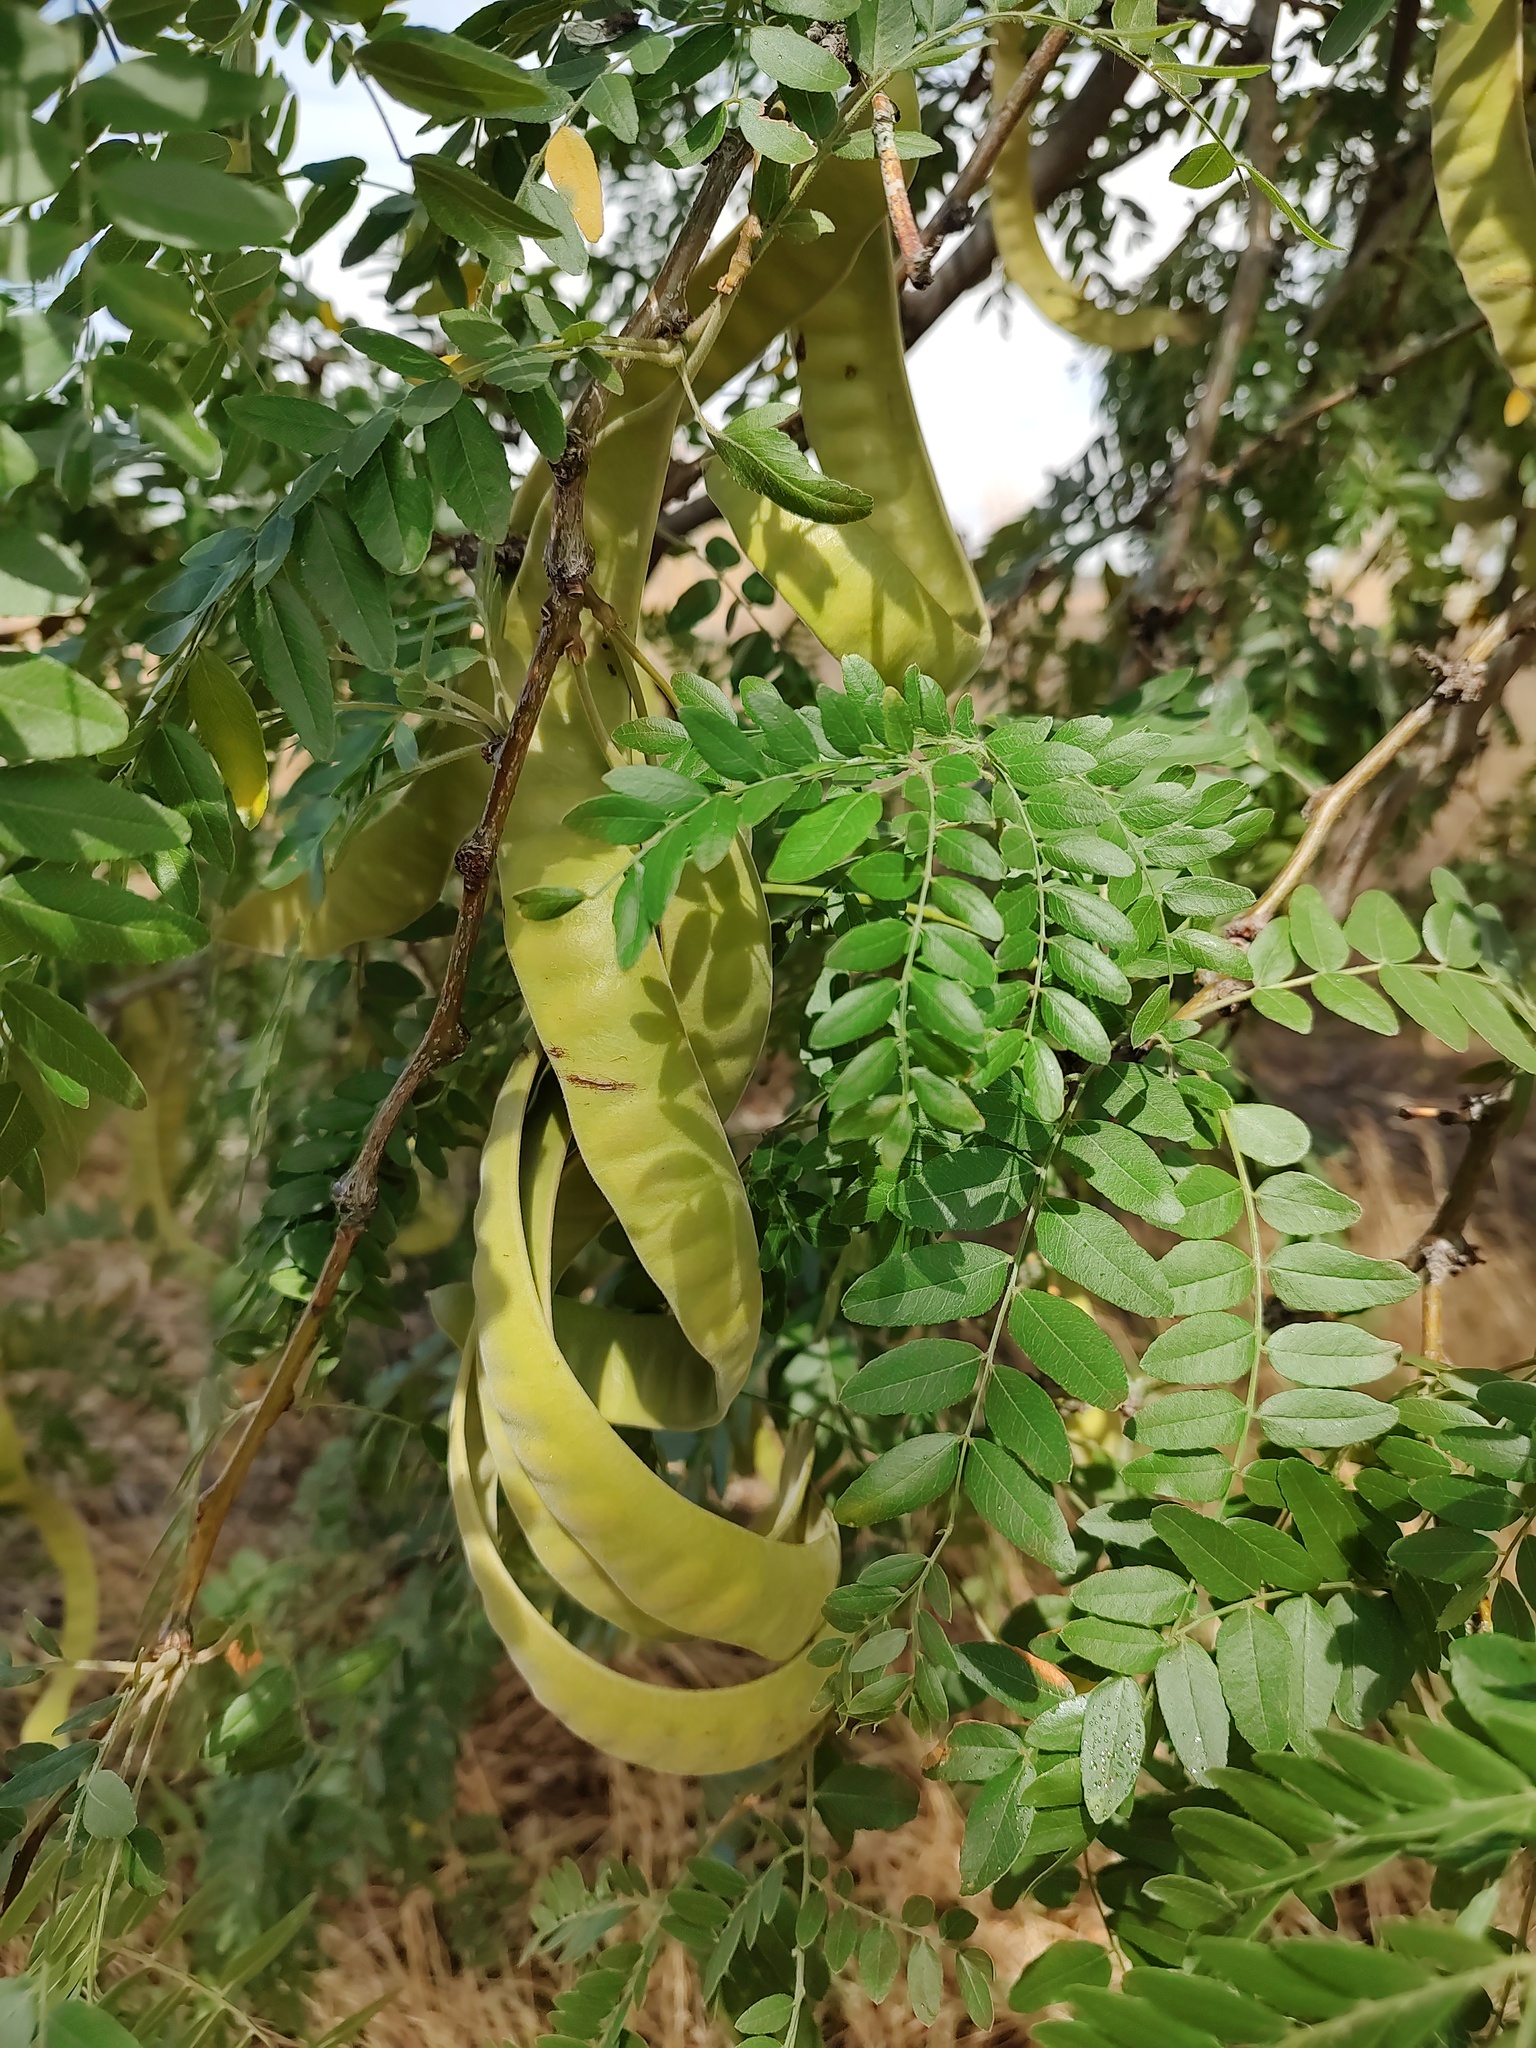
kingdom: Plantae
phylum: Tracheophyta
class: Magnoliopsida
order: Fabales
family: Fabaceae
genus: Gleditsia
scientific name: Gleditsia triacanthos
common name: Common honeylocust
